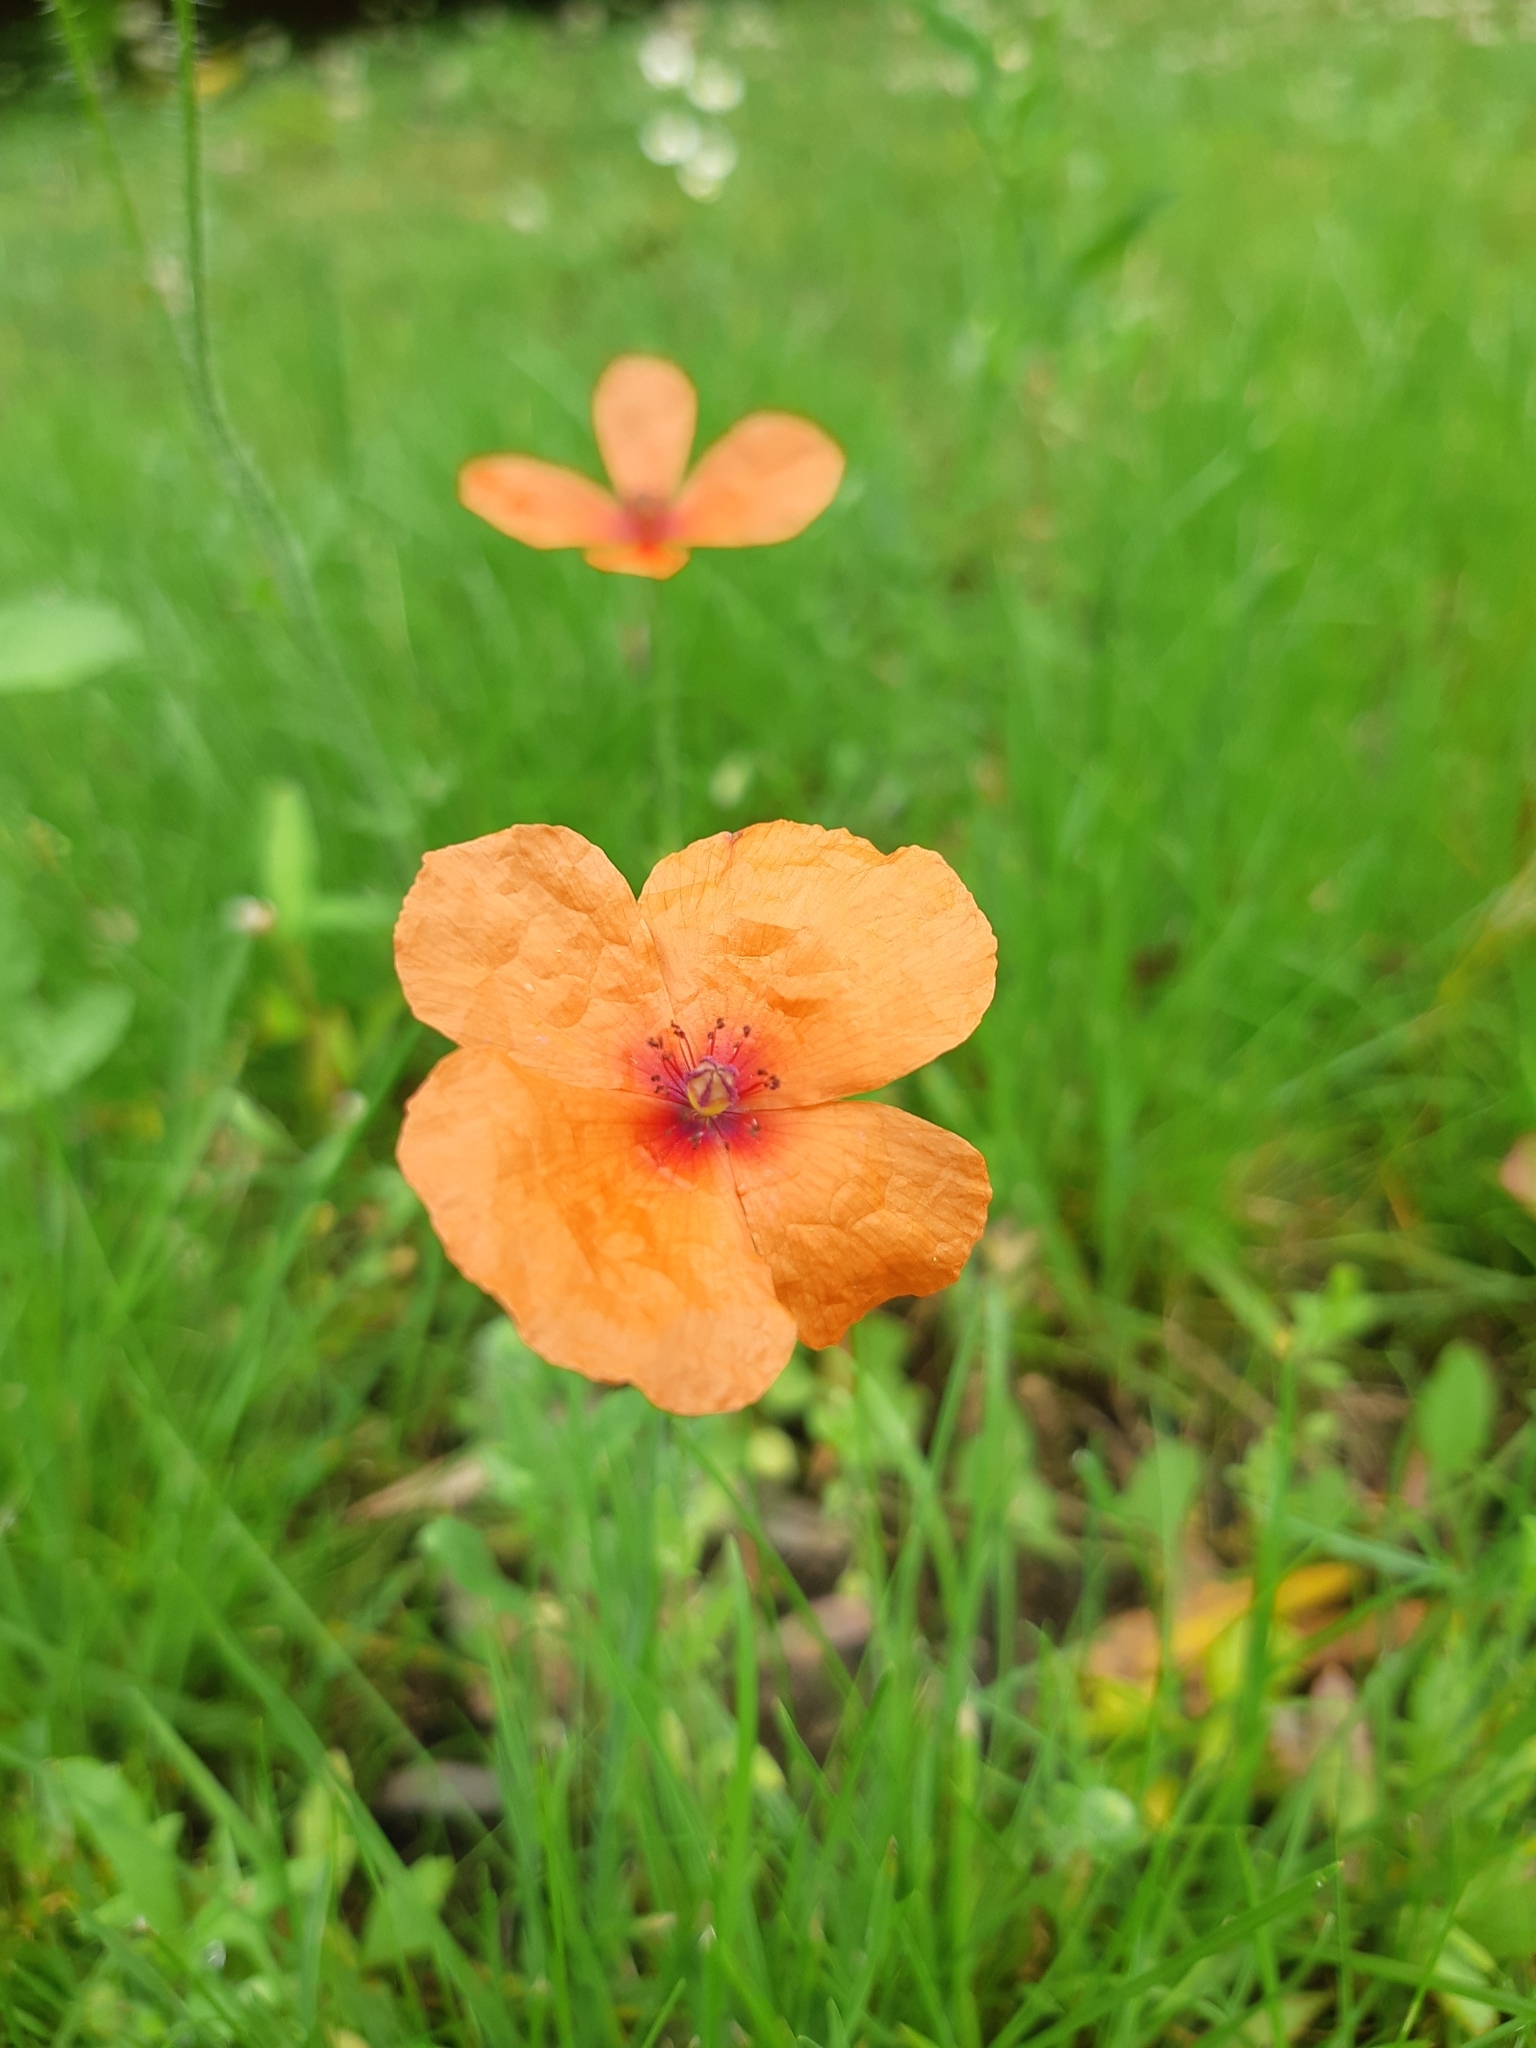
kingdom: Plantae
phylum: Tracheophyta
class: Magnoliopsida
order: Ranunculales
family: Papaveraceae
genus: Papaver
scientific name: Papaver dubium
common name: Long-headed poppy
